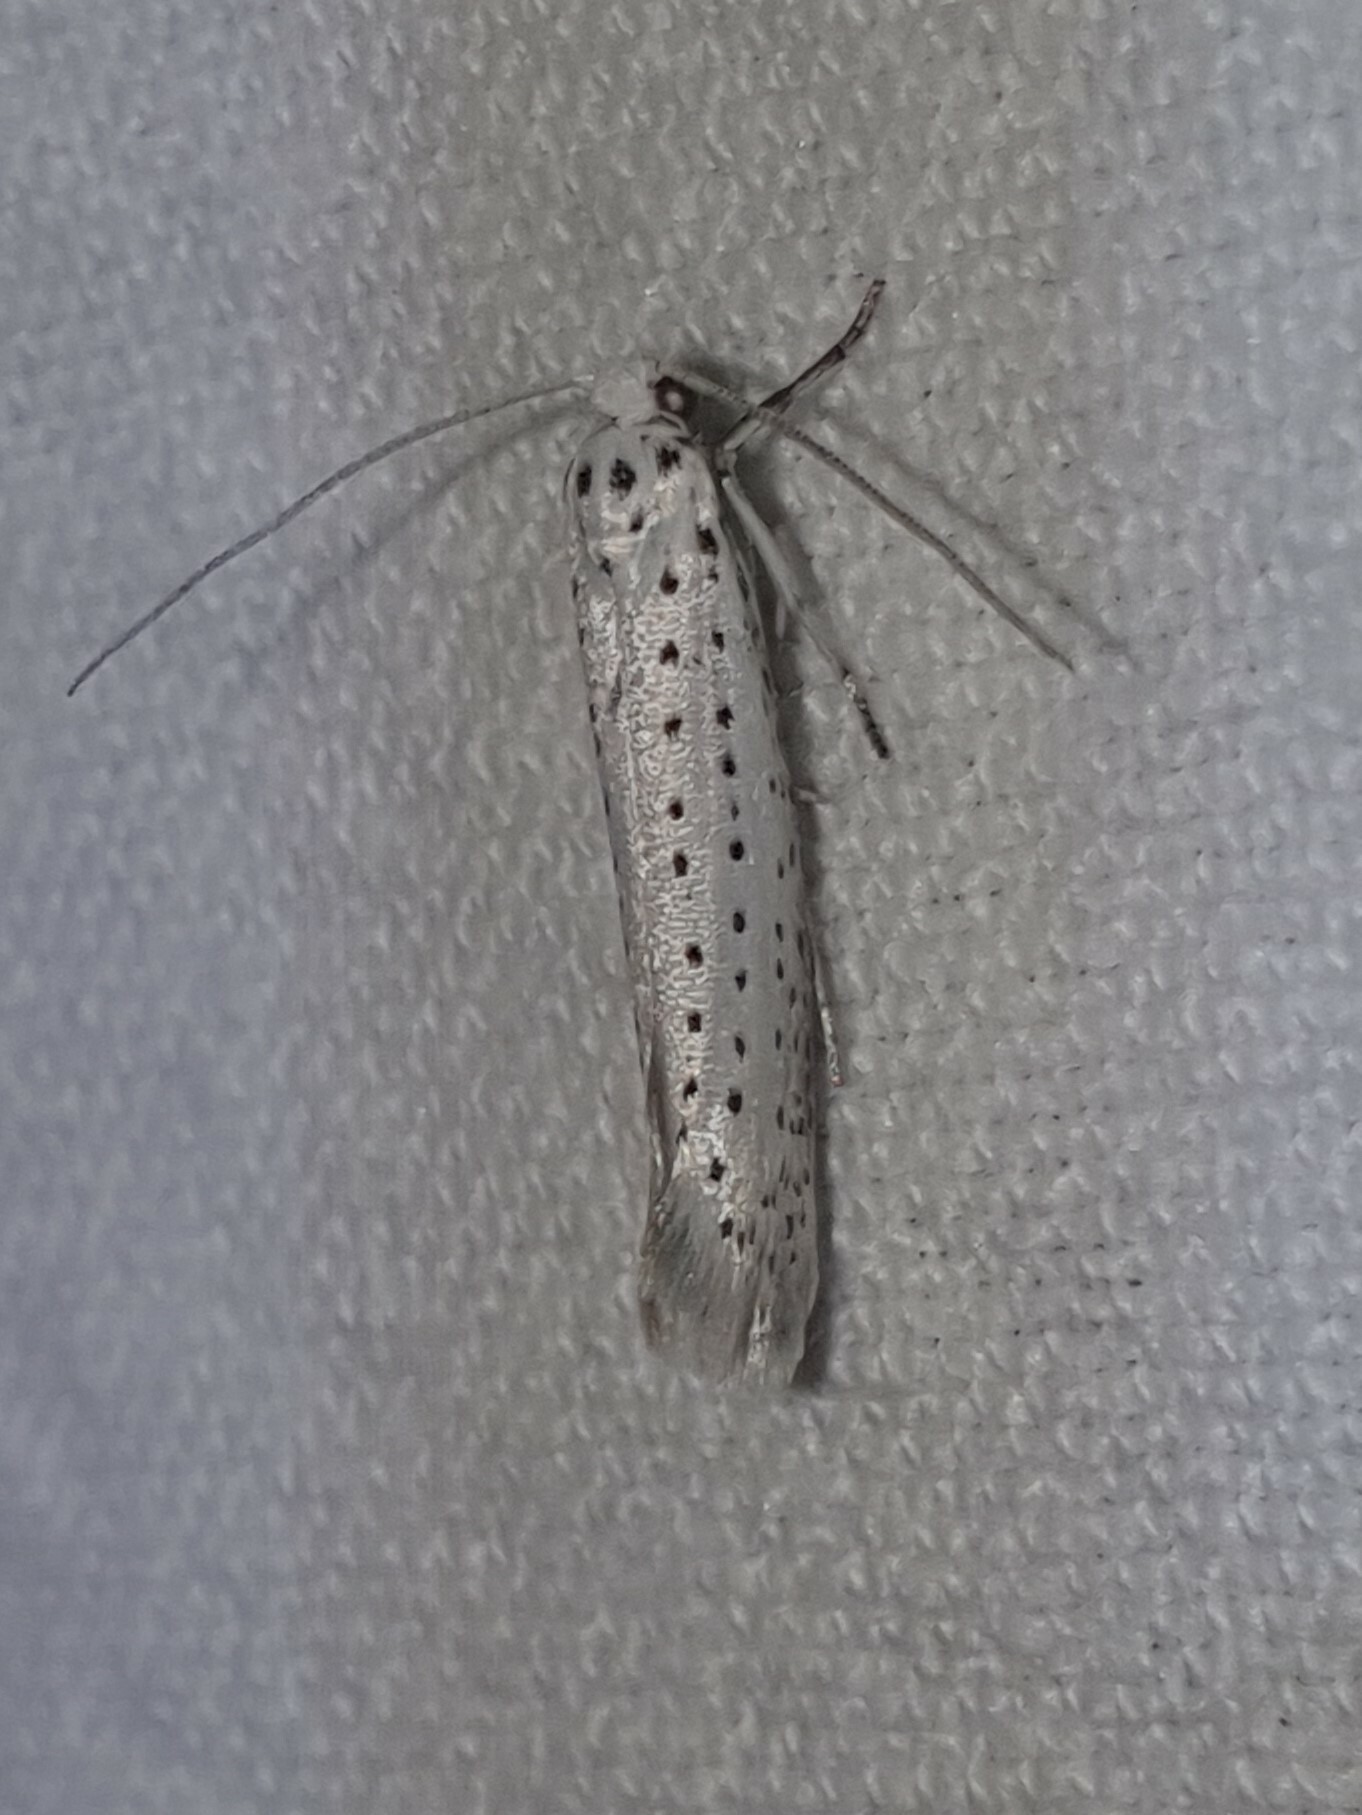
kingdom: Animalia
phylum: Arthropoda
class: Insecta
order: Lepidoptera
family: Yponomeutidae
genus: Yponomeuta
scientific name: Yponomeuta evonymella
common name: Bird-cherry ermine
